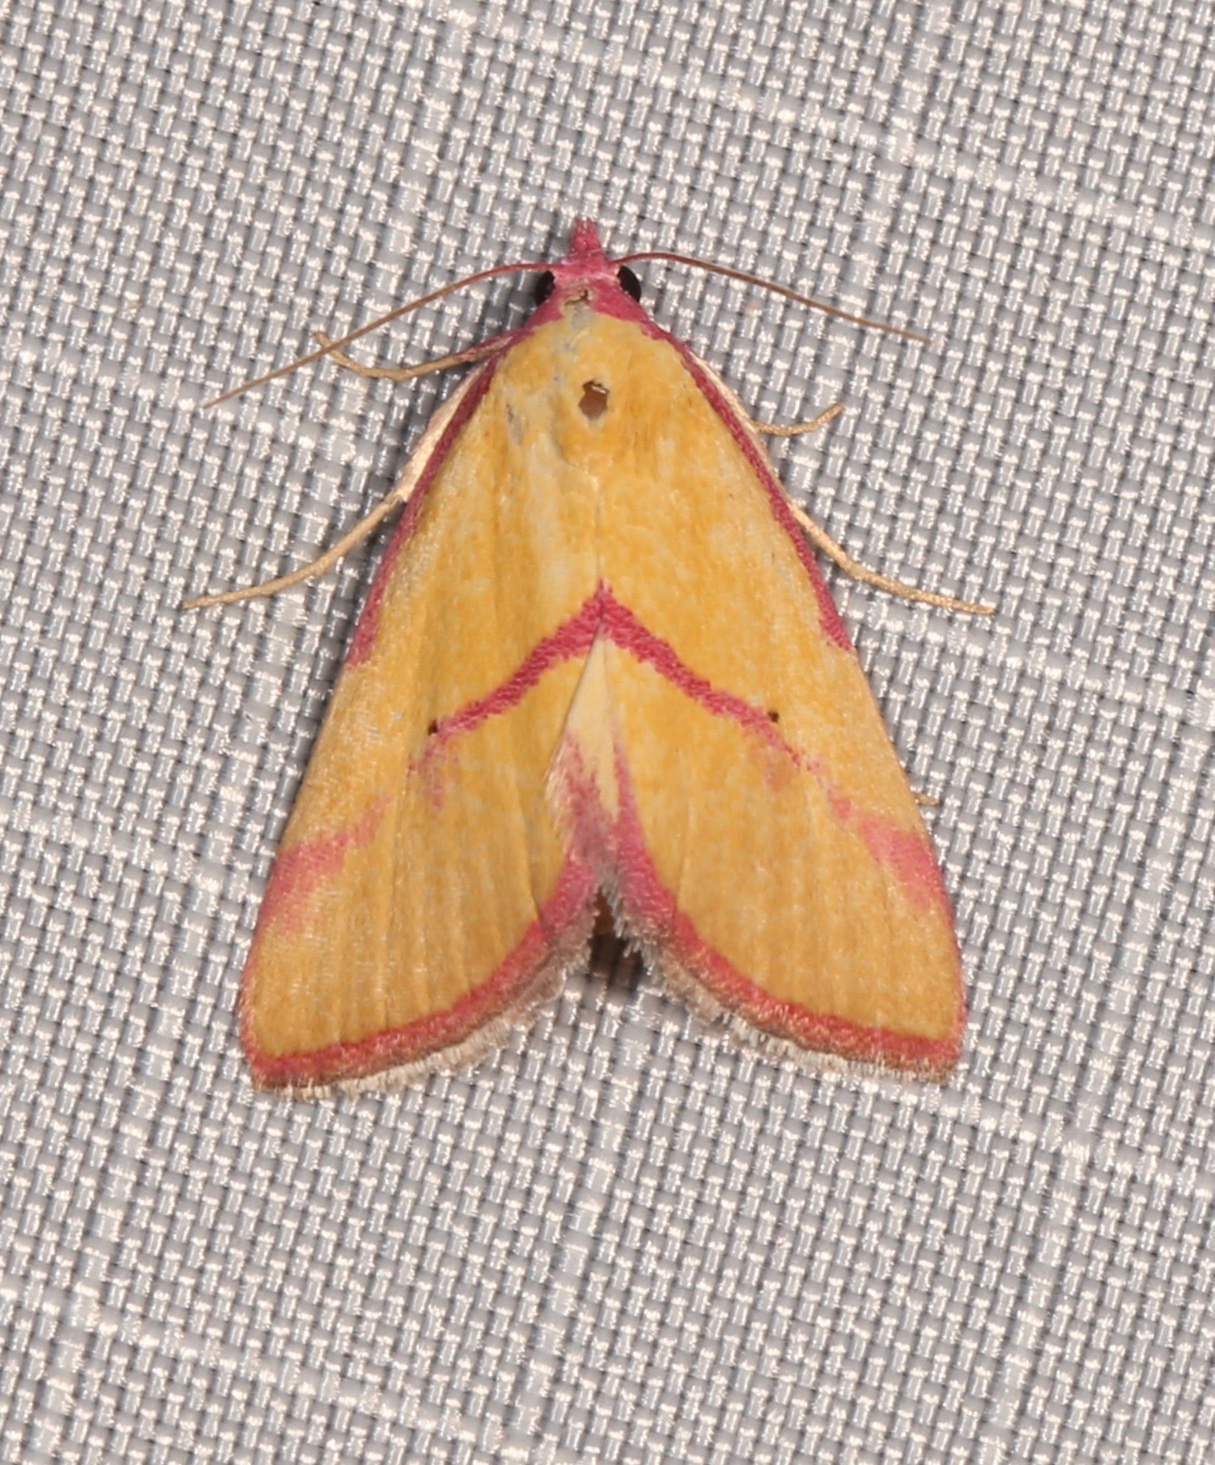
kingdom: Animalia
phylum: Arthropoda
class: Insecta
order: Lepidoptera
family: Erebidae
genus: Phytometra
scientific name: Phytometra ernestinana
